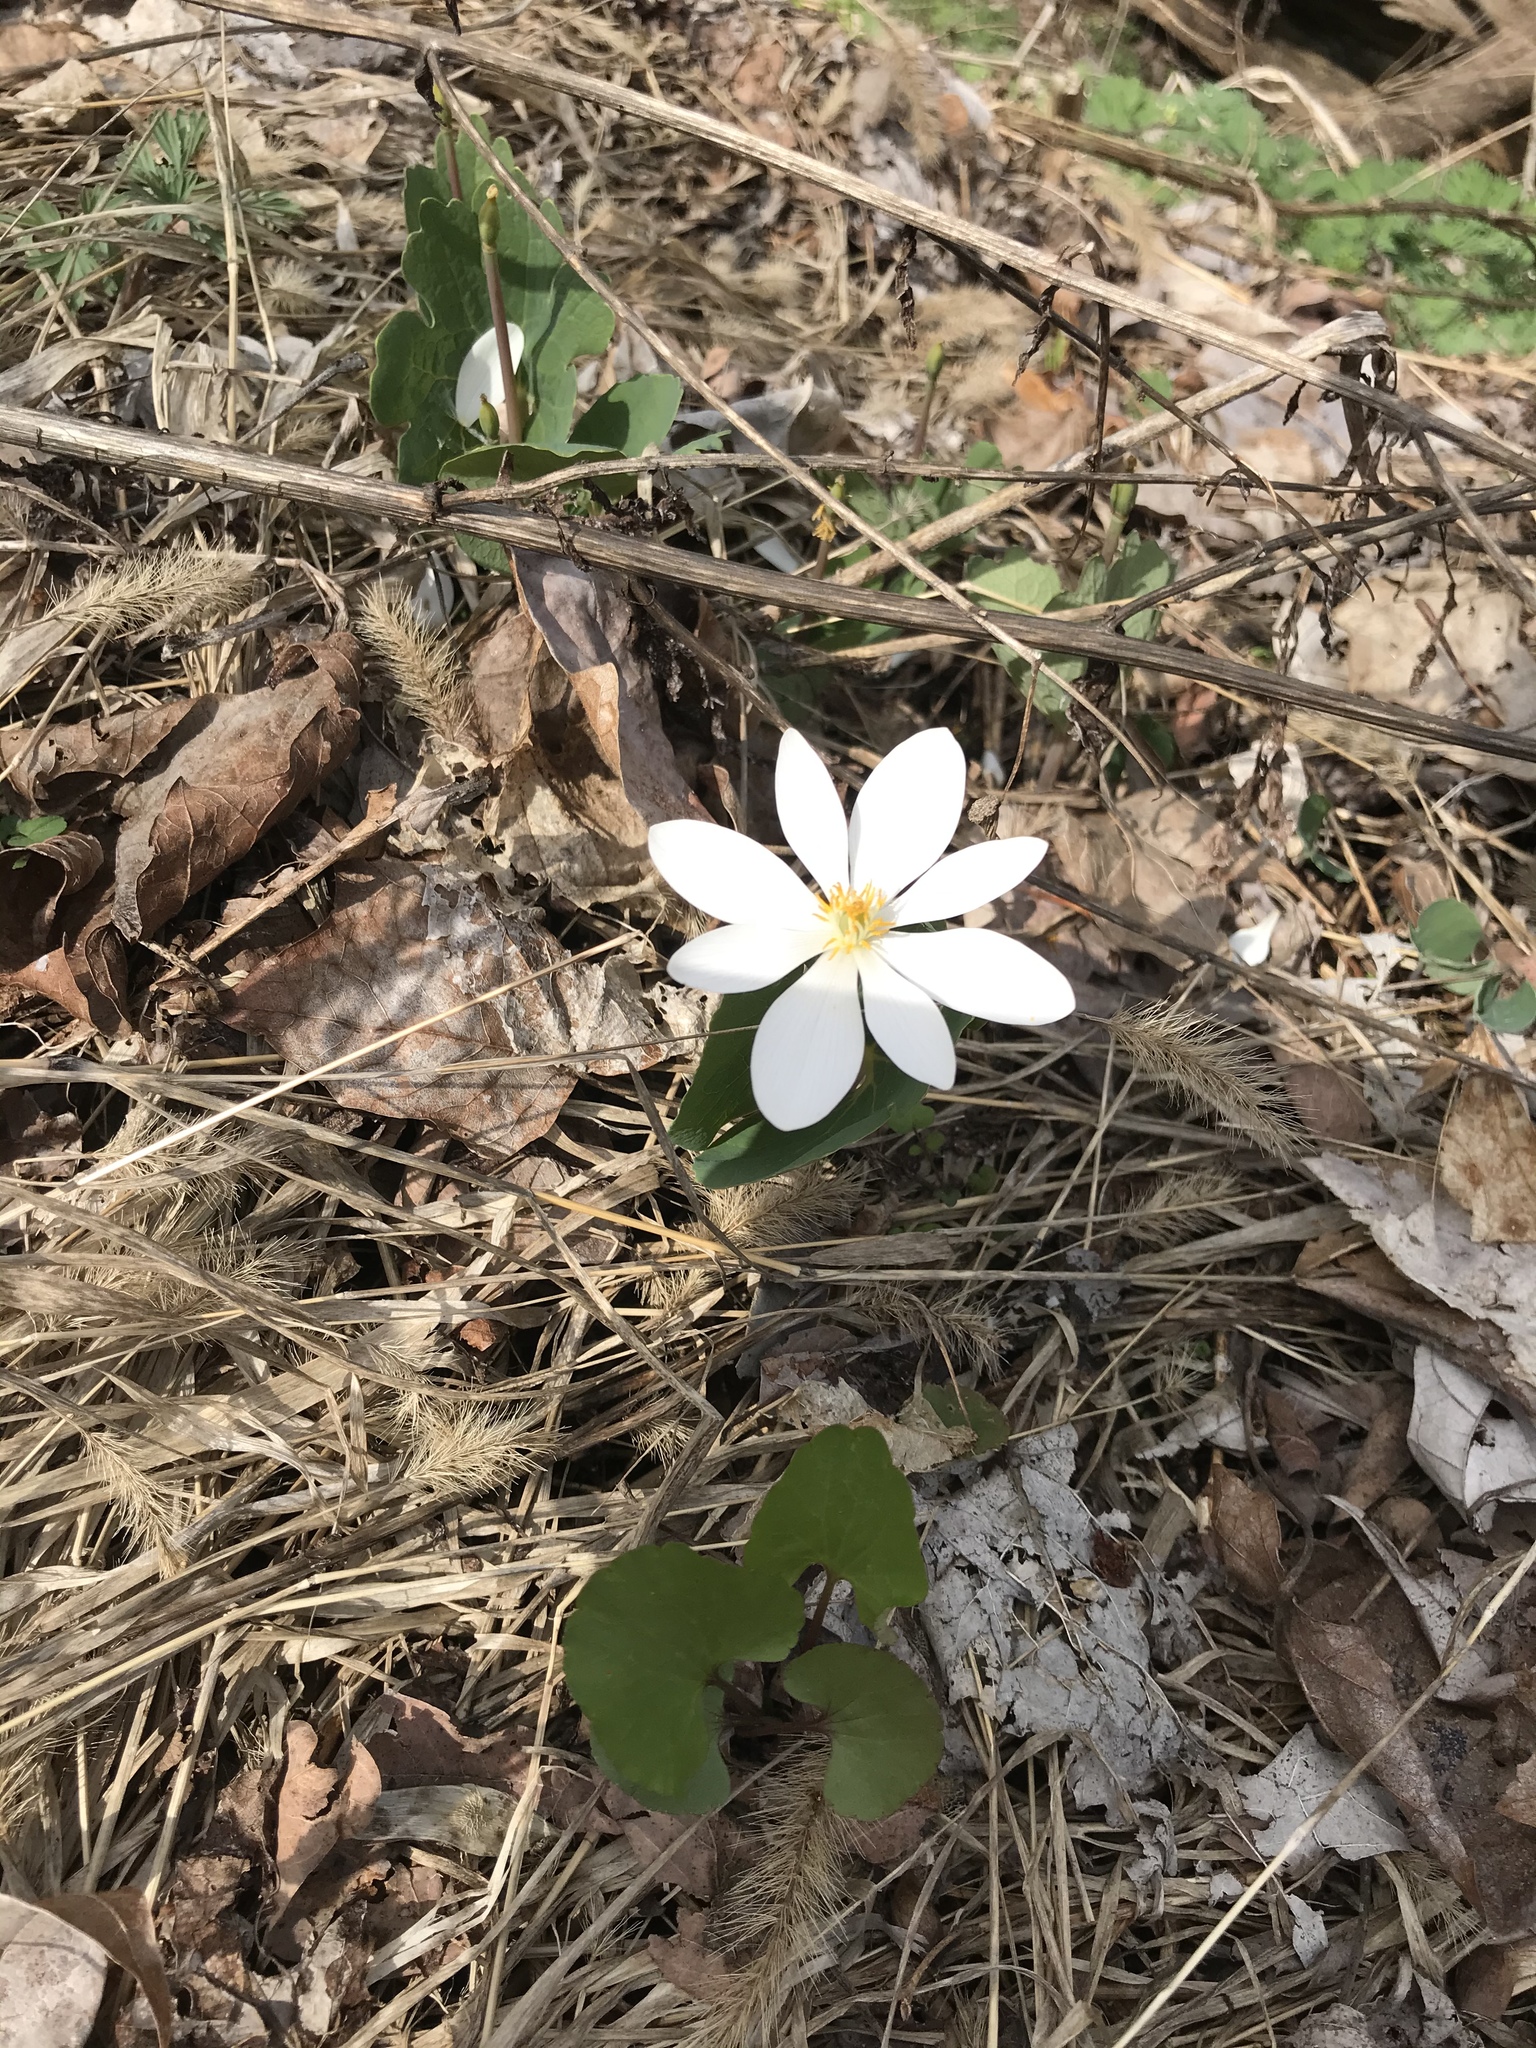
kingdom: Plantae
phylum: Tracheophyta
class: Magnoliopsida
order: Ranunculales
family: Papaveraceae
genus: Sanguinaria
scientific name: Sanguinaria canadensis
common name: Bloodroot
